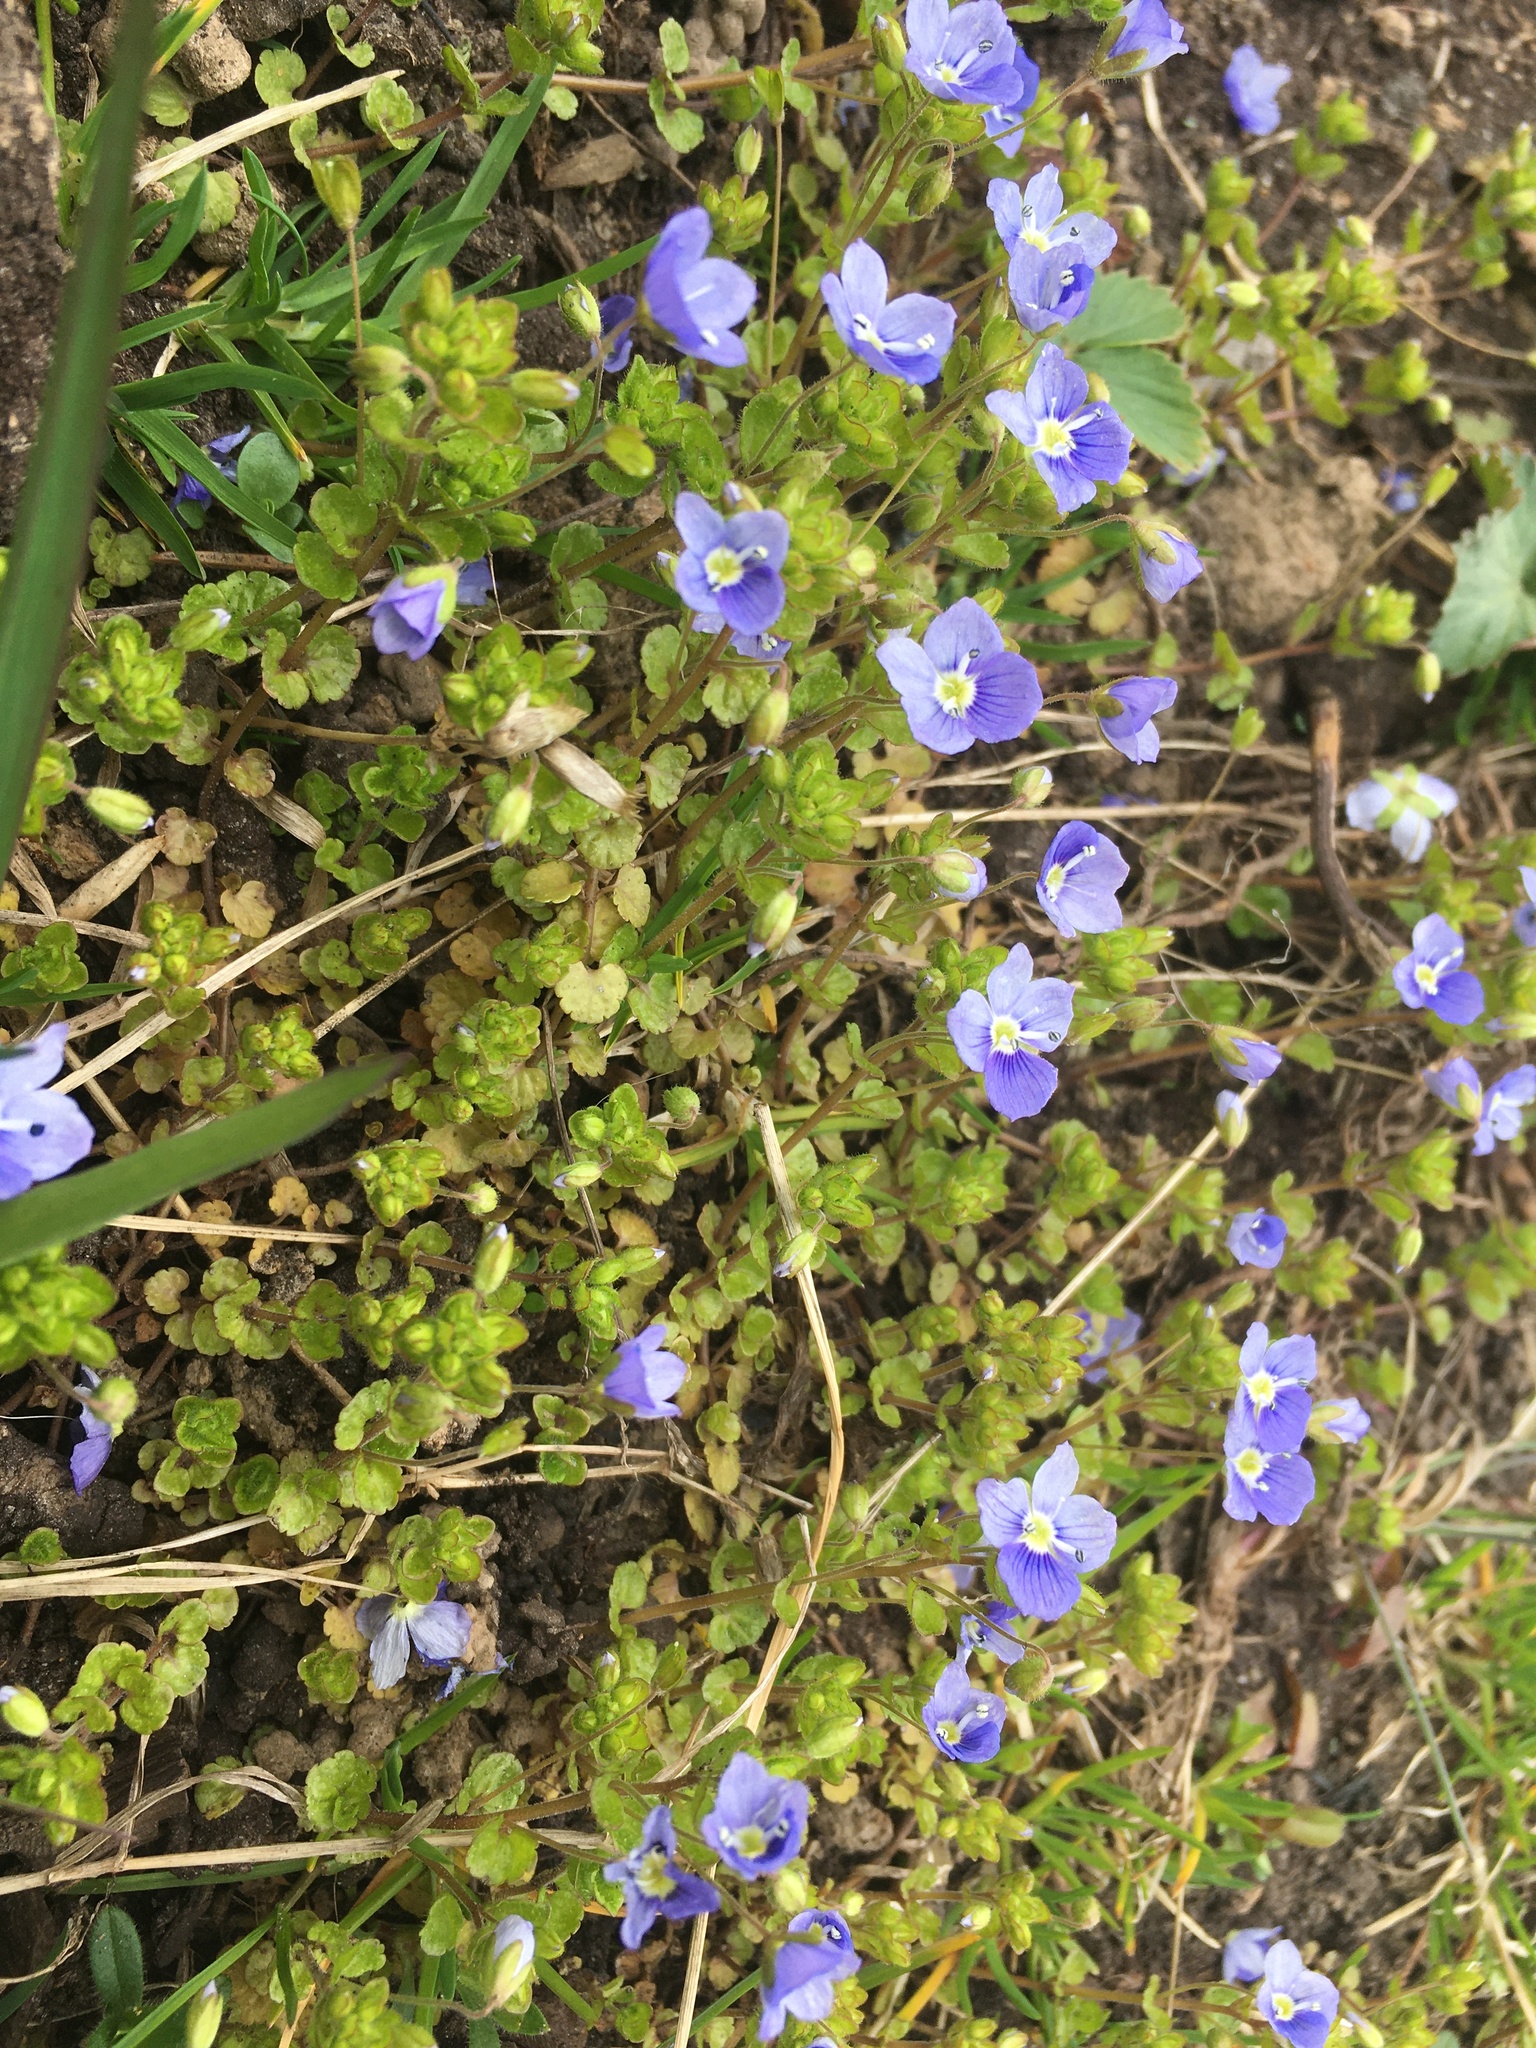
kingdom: Plantae
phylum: Tracheophyta
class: Magnoliopsida
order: Lamiales
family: Plantaginaceae
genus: Veronica
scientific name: Veronica filiformis
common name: Slender speedwell
